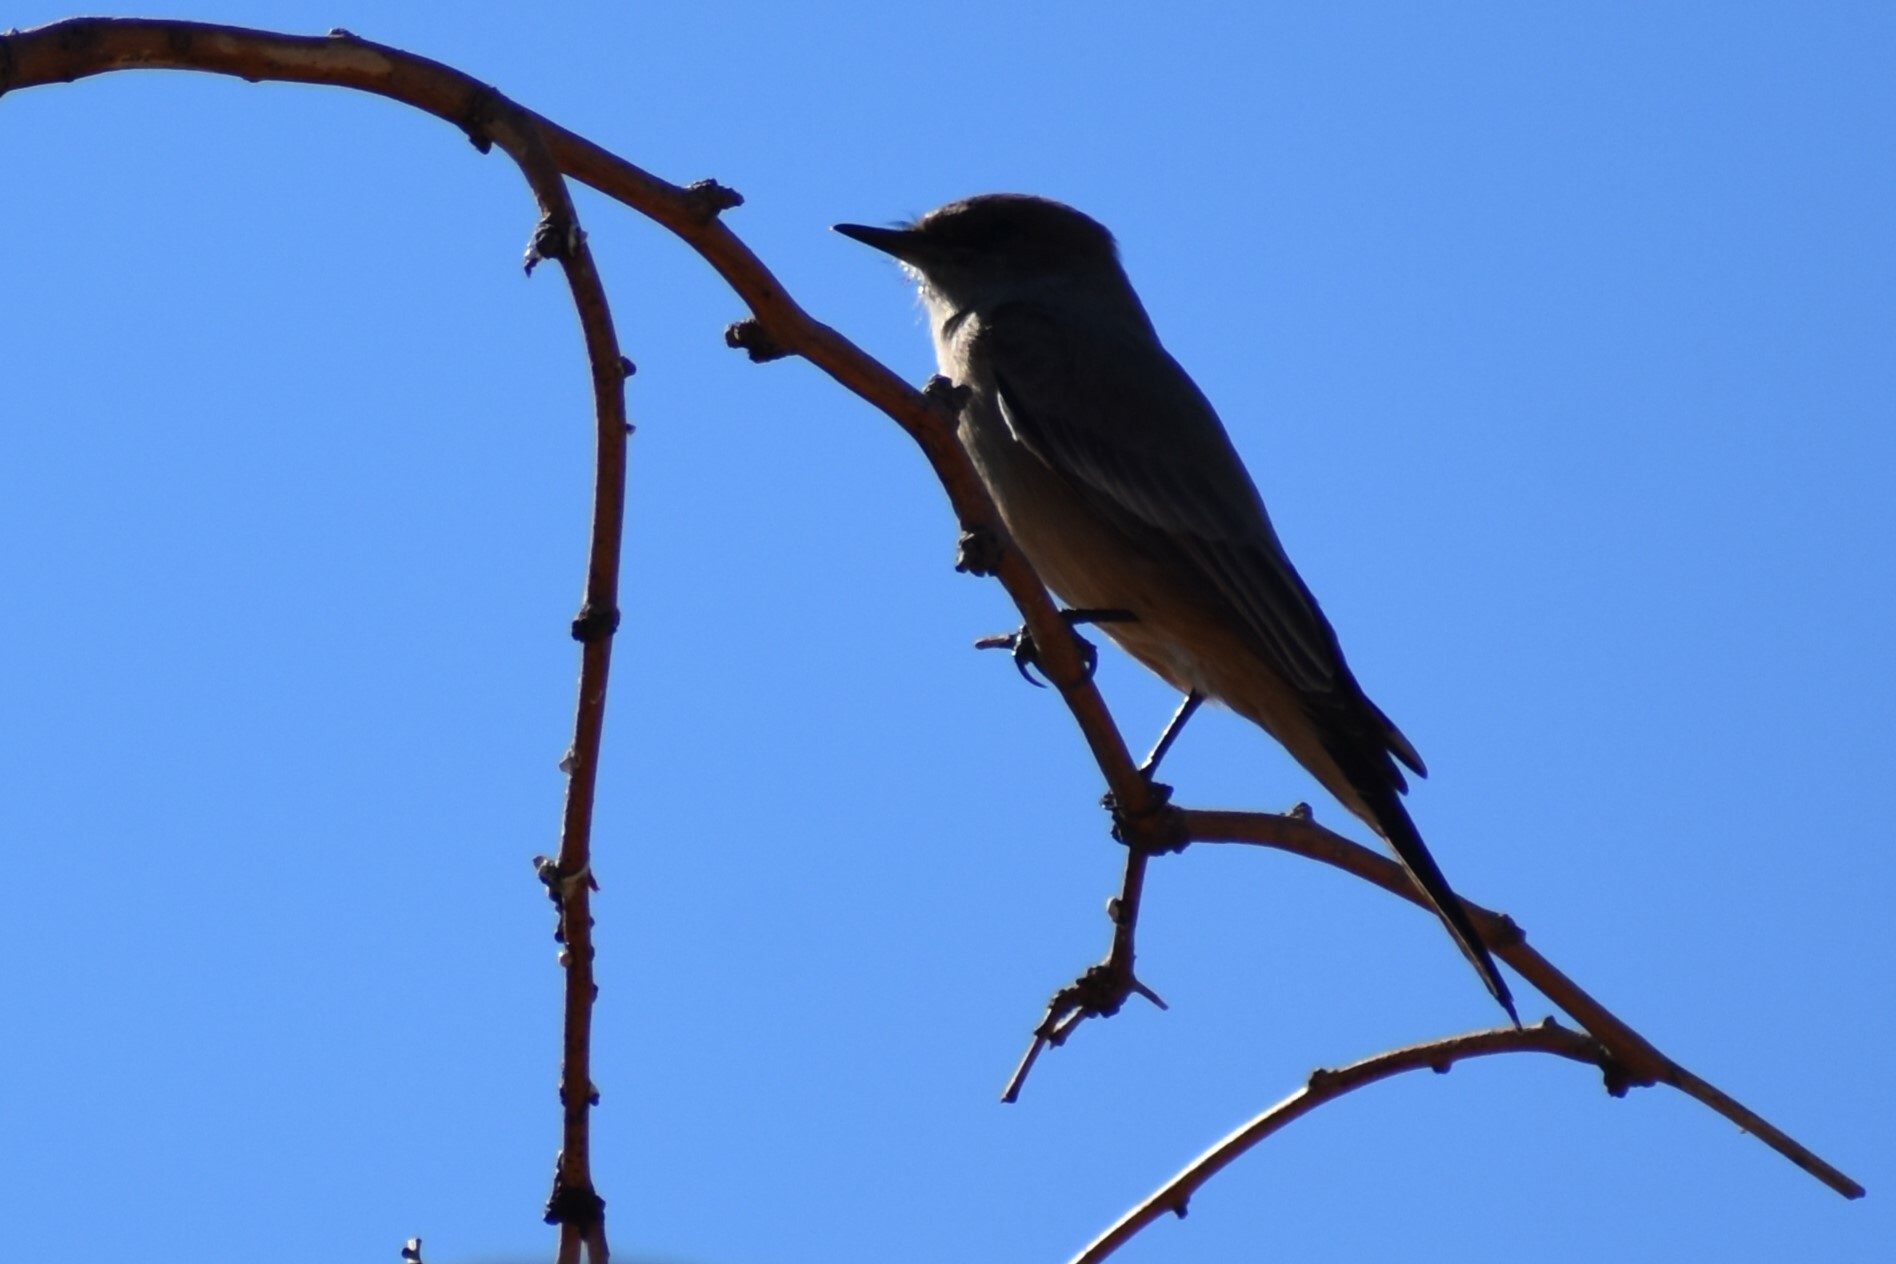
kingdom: Animalia
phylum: Chordata
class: Aves
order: Passeriformes
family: Tyrannidae
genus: Sayornis
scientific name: Sayornis saya
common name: Say's phoebe
